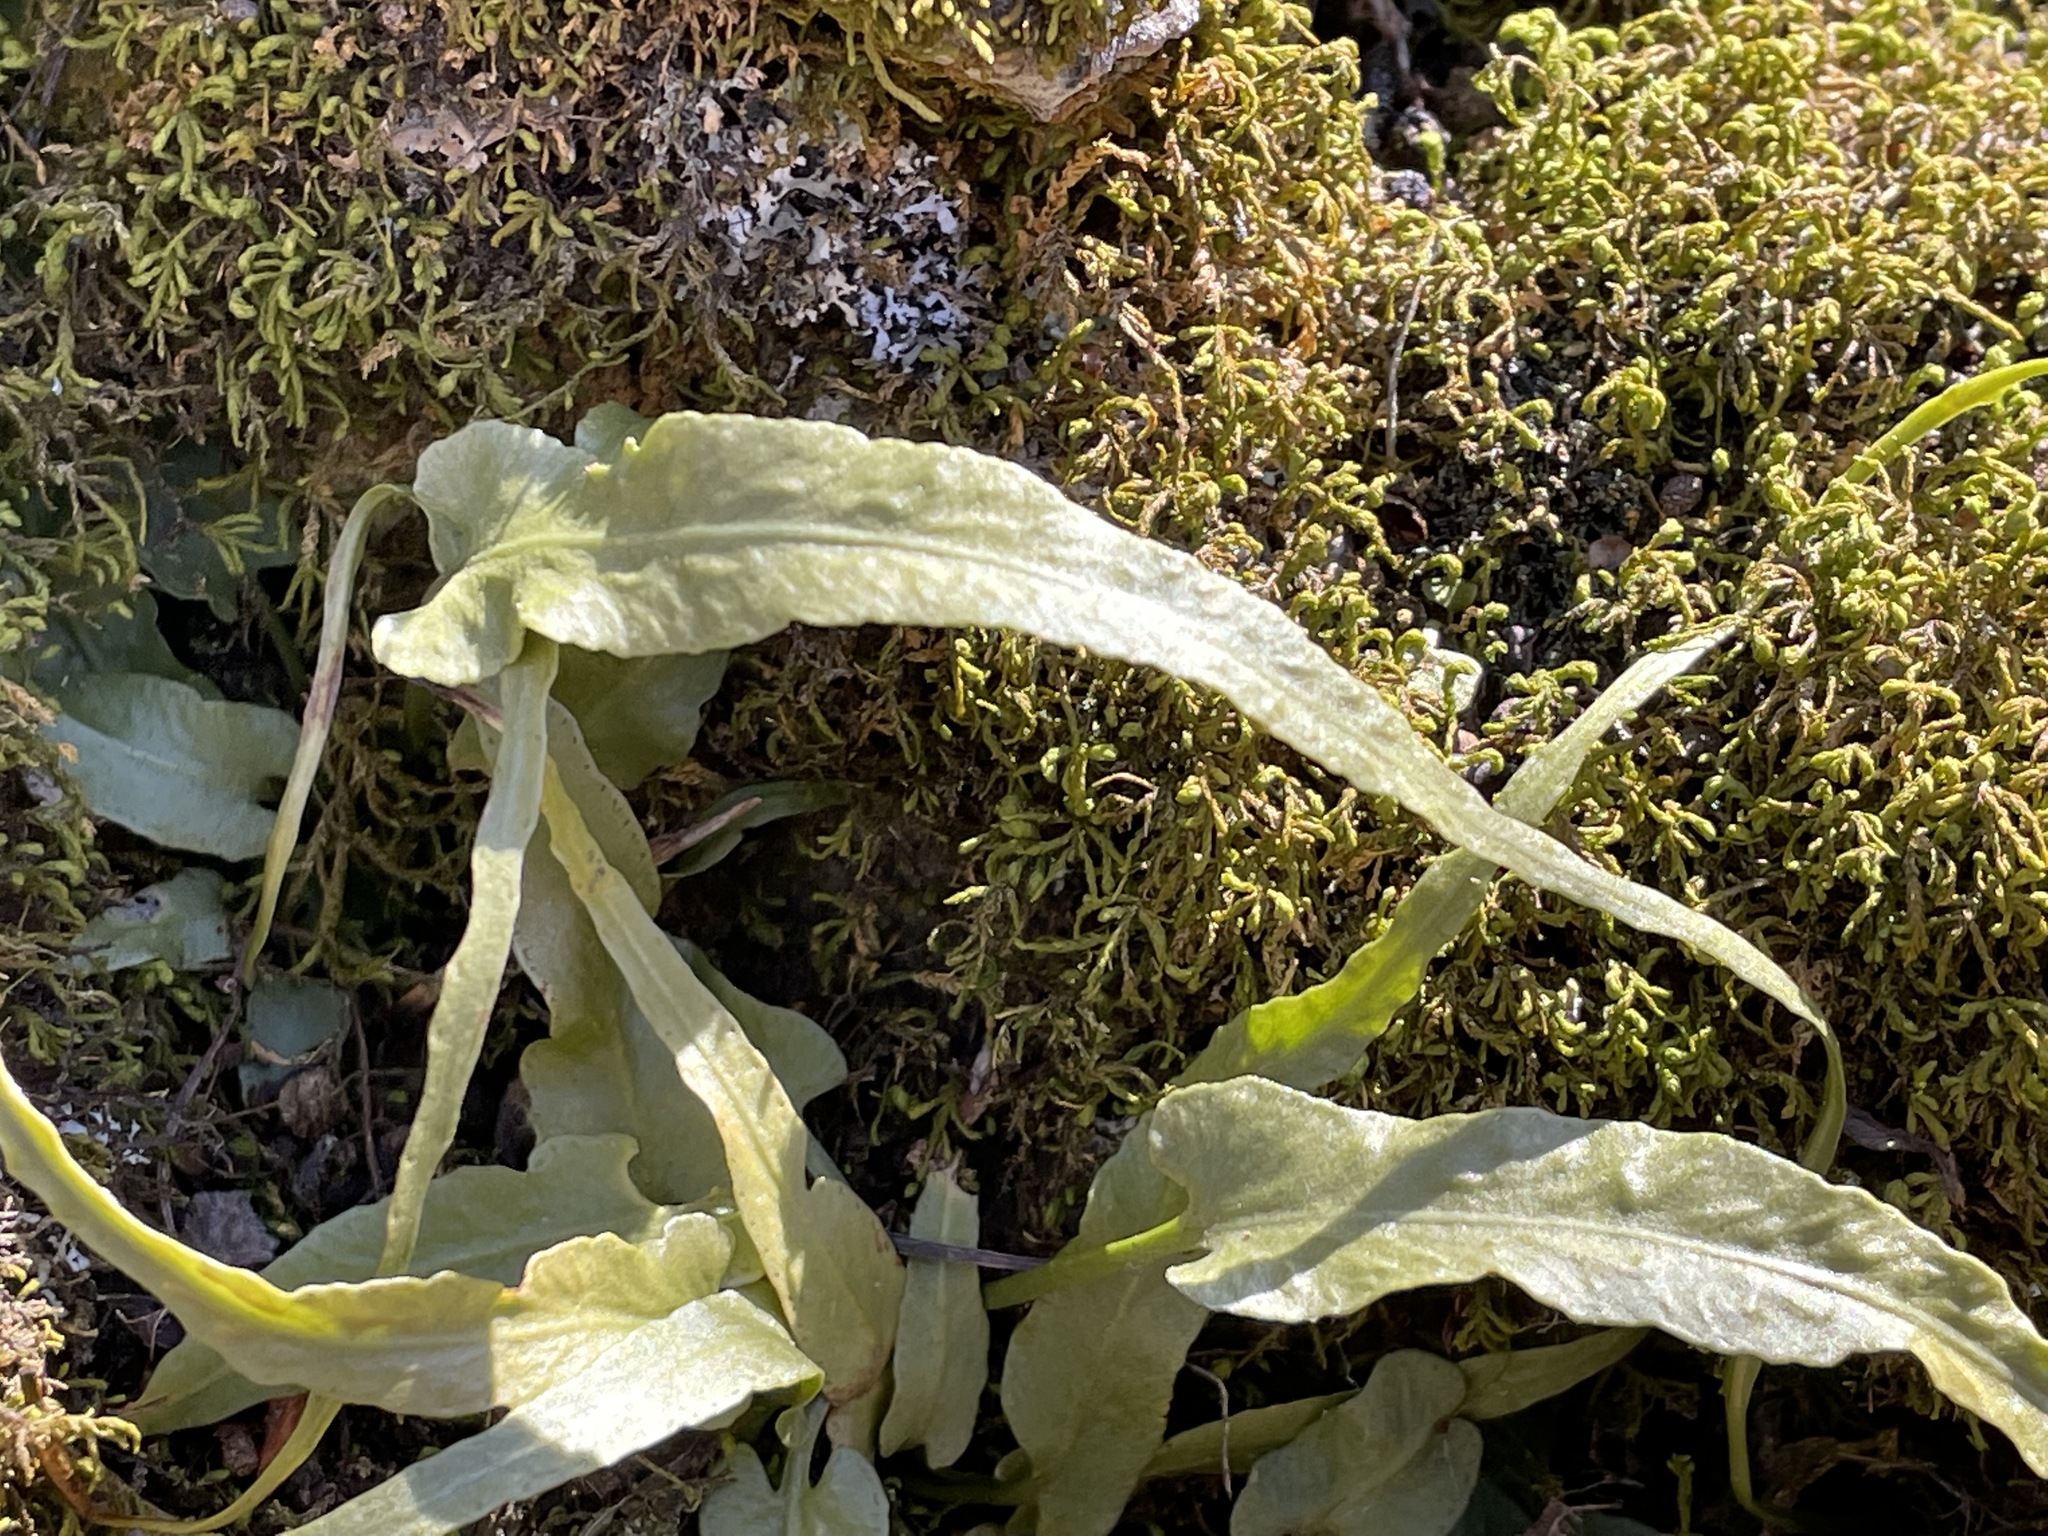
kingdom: Plantae
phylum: Tracheophyta
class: Polypodiopsida
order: Polypodiales
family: Aspleniaceae
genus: Asplenium
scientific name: Asplenium rhizophyllum
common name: Walking fern
